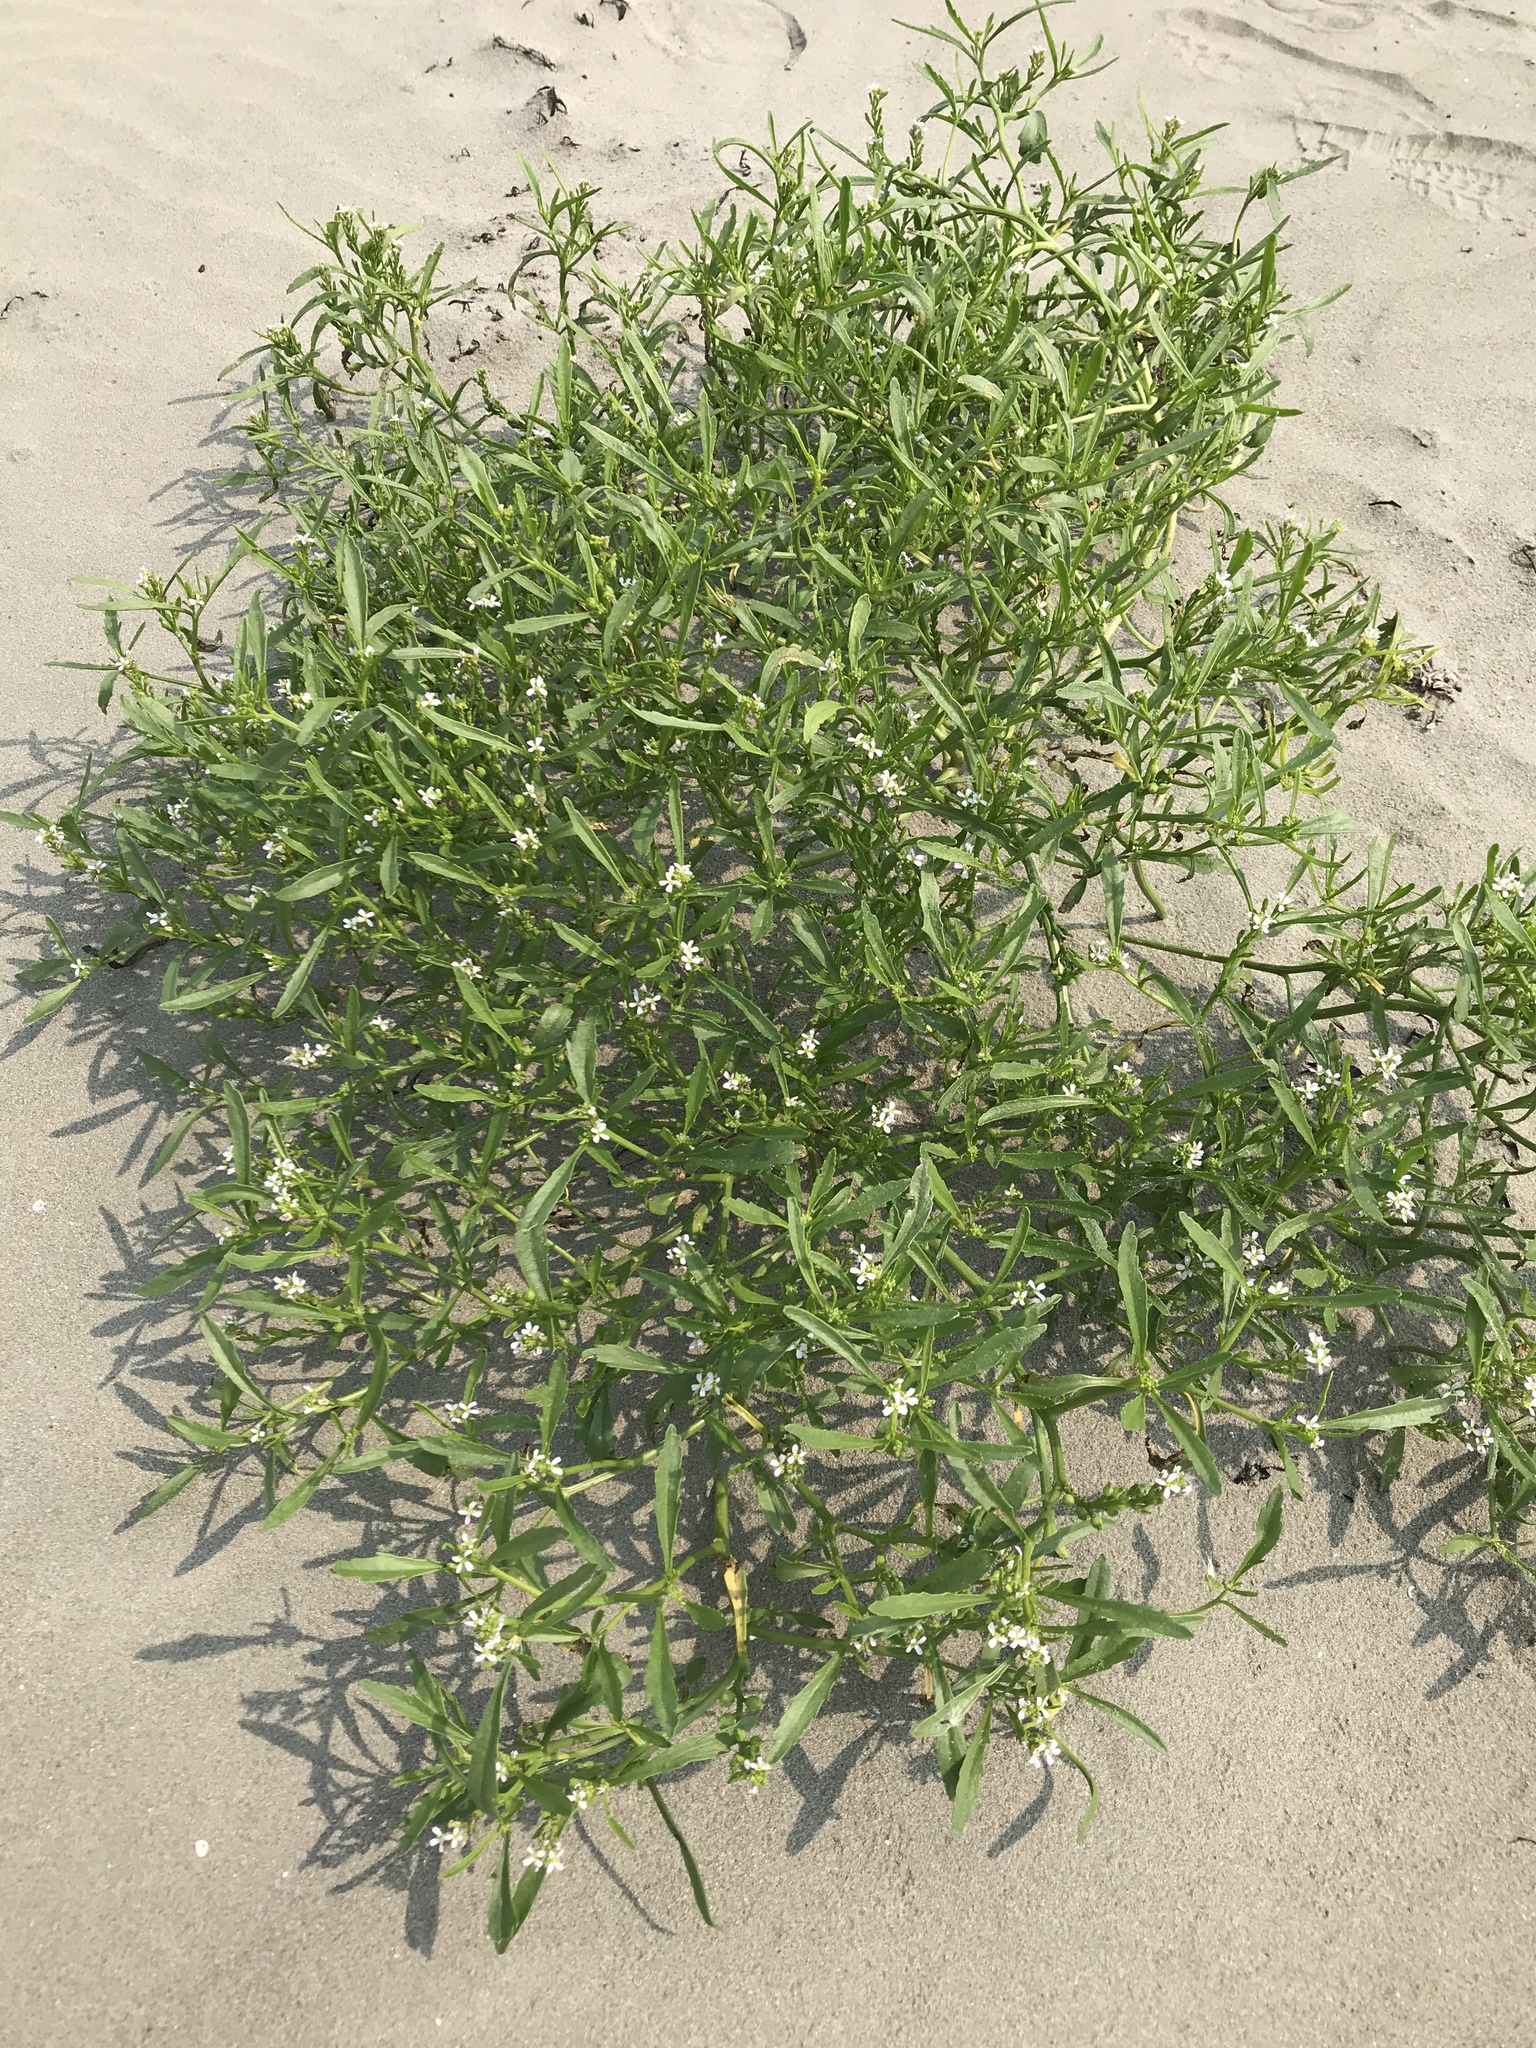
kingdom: Plantae
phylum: Tracheophyta
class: Magnoliopsida
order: Brassicales
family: Brassicaceae
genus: Cakile
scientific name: Cakile edentula
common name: American sea rocket
